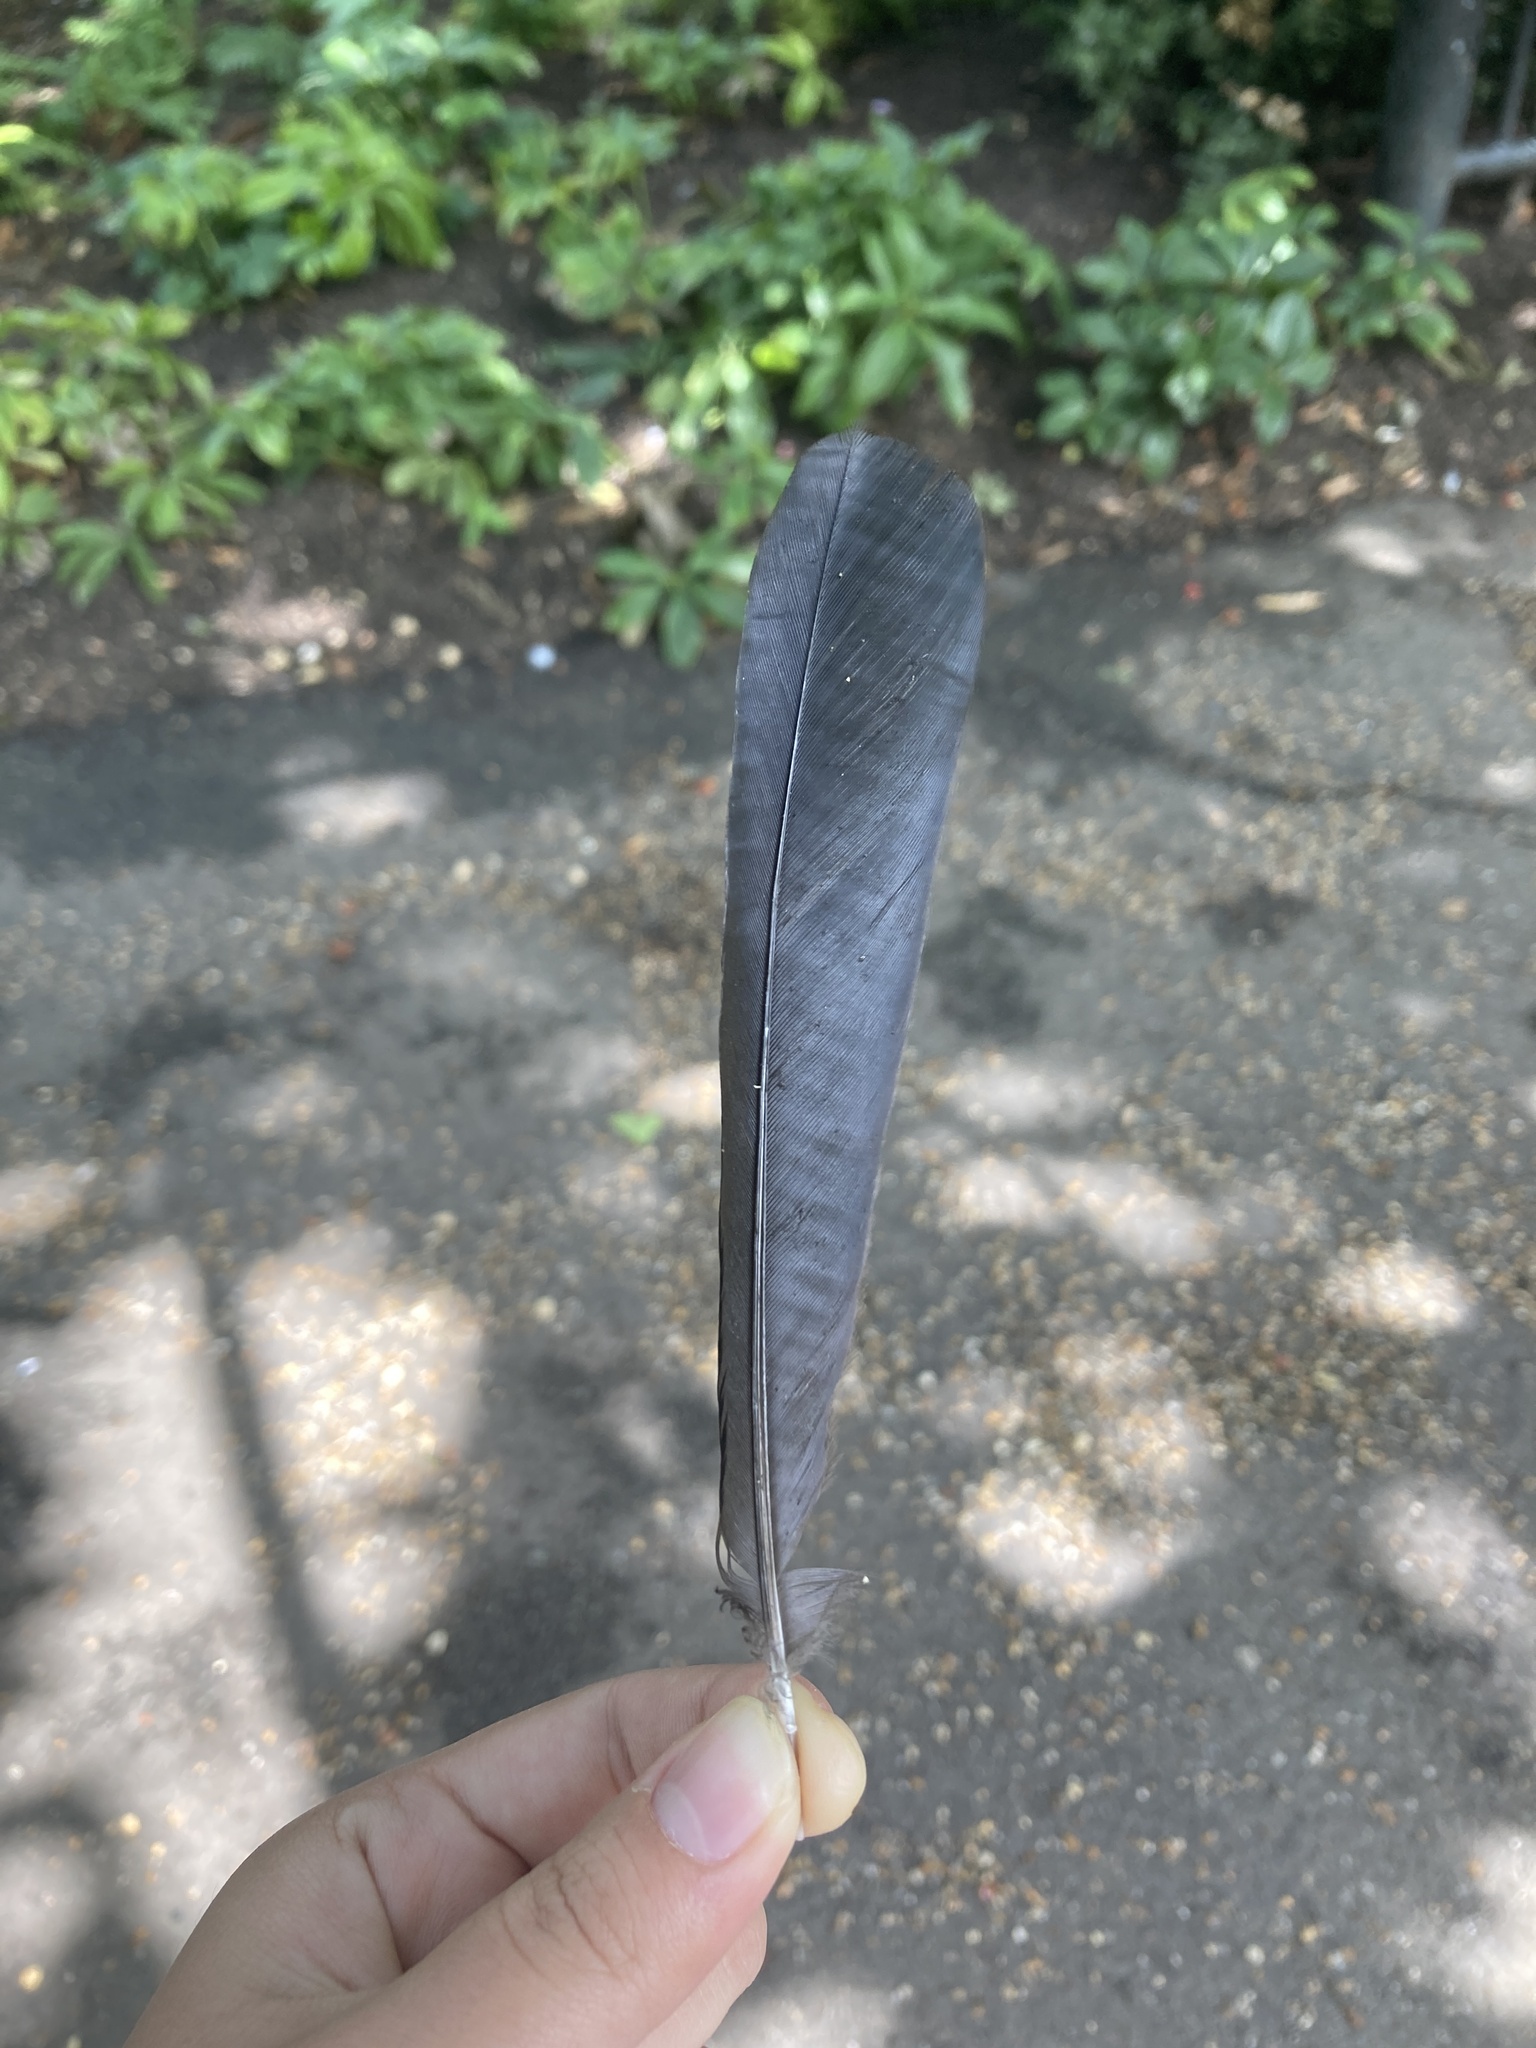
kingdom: Animalia
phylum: Chordata
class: Aves
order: Passeriformes
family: Corvidae
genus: Pica
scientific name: Pica pica
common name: Eurasian magpie
